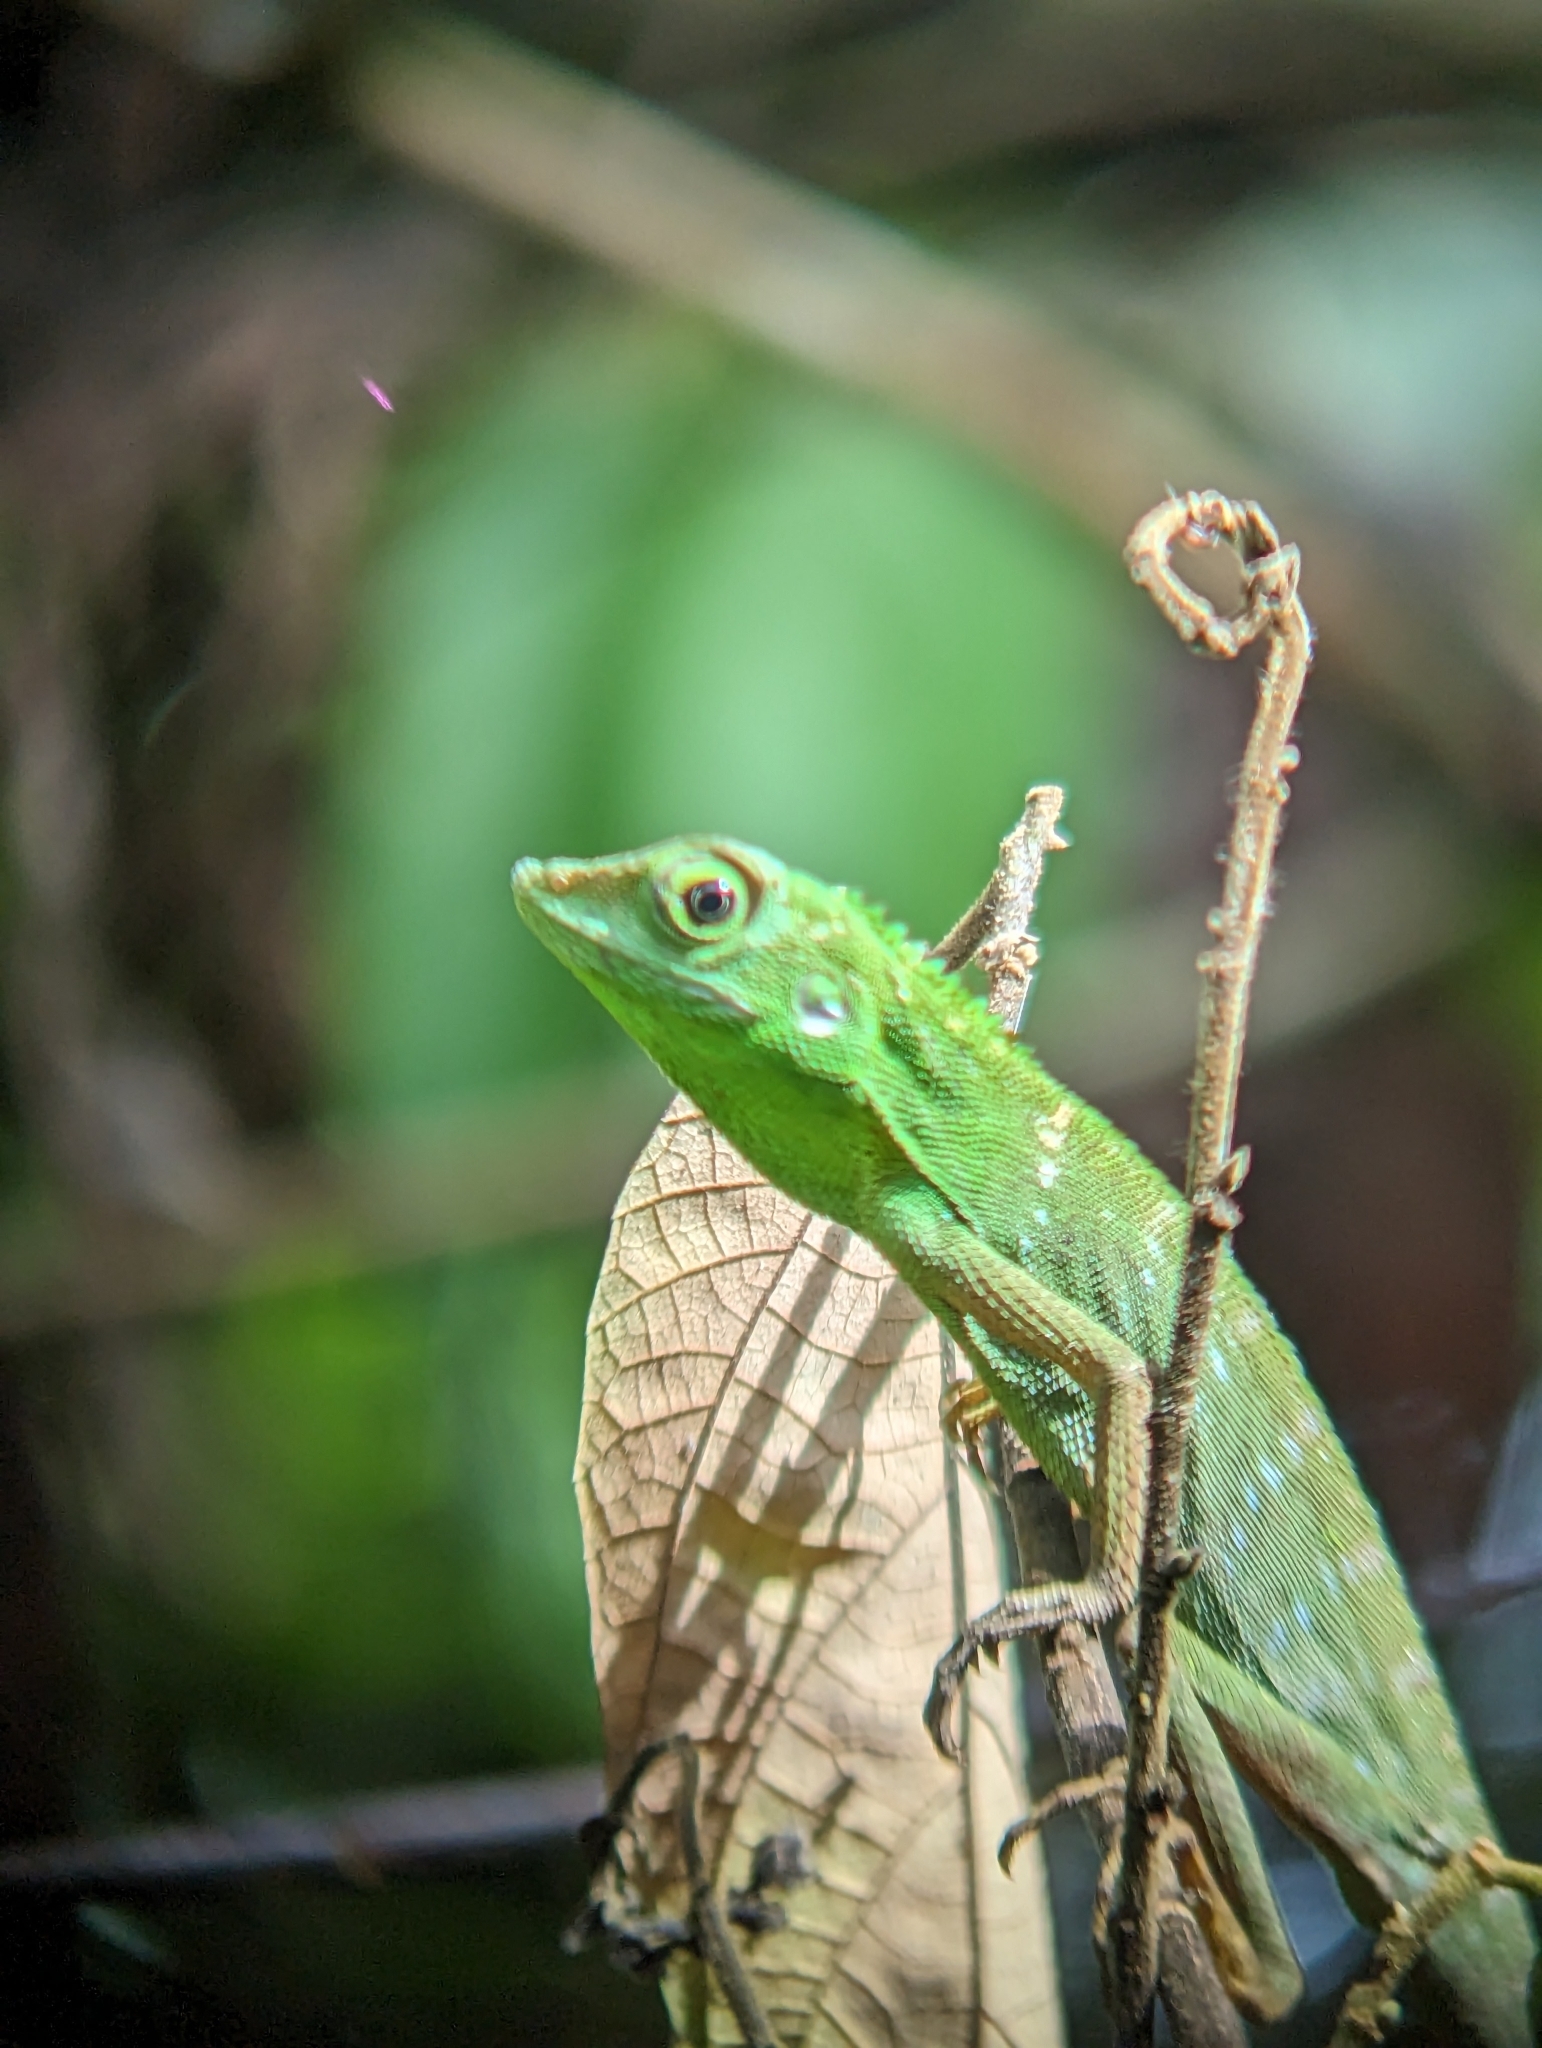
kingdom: Animalia
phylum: Chordata
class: Squamata
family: Agamidae
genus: Bronchocela
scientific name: Bronchocela cristatella
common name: Green crested lizard
